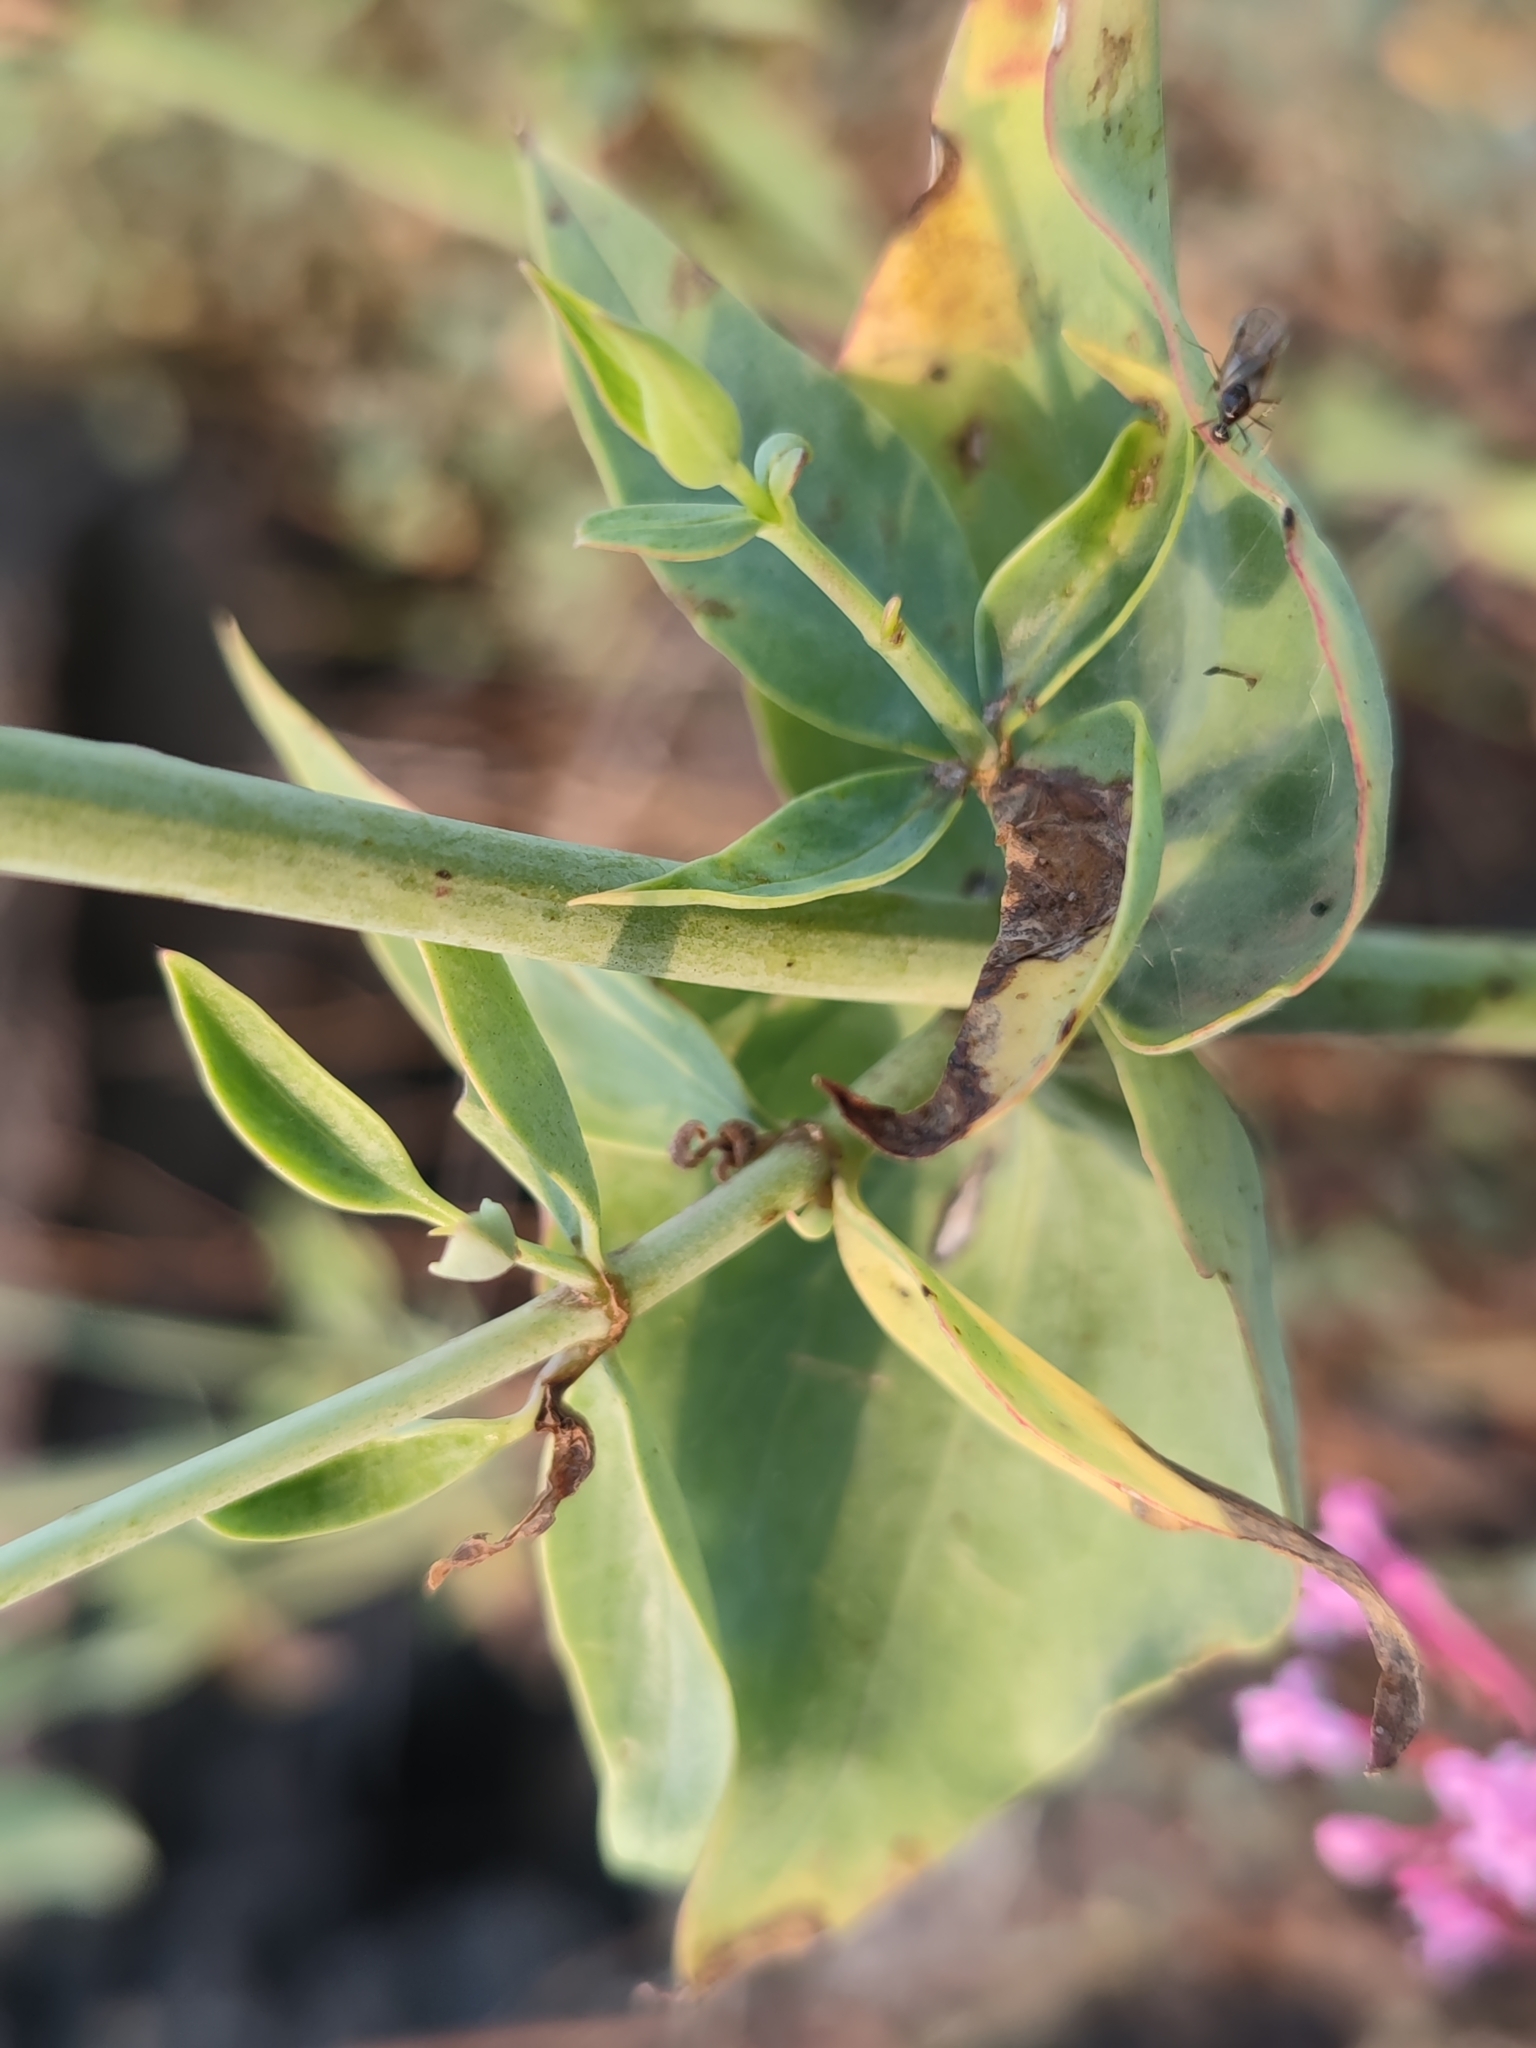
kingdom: Plantae
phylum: Tracheophyta
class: Magnoliopsida
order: Dipsacales
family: Caprifoliaceae
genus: Centranthus
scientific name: Centranthus ruber
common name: Red valerian
